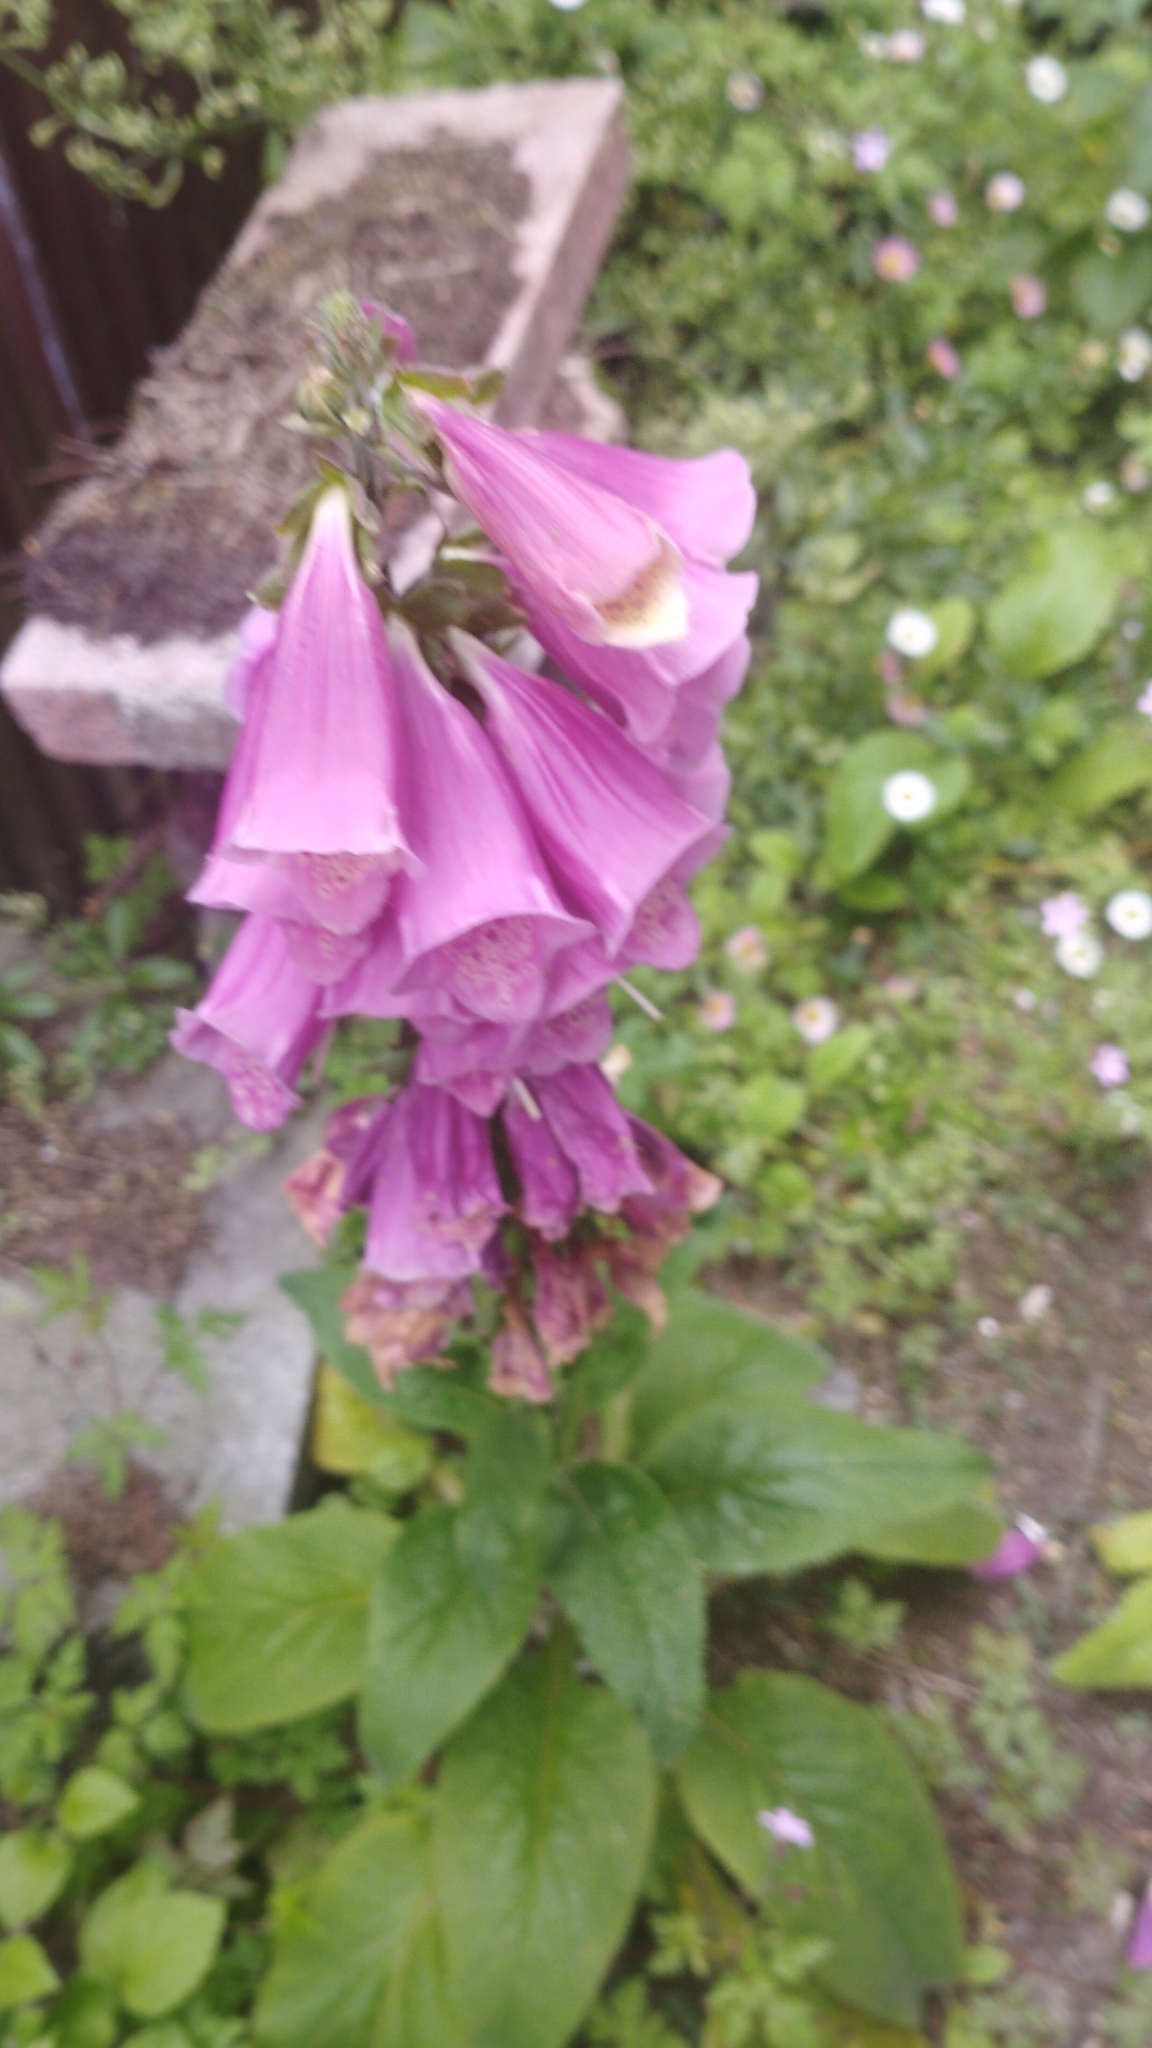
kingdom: Plantae
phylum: Tracheophyta
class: Magnoliopsida
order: Lamiales
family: Plantaginaceae
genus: Digitalis
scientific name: Digitalis purpurea
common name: Foxglove
